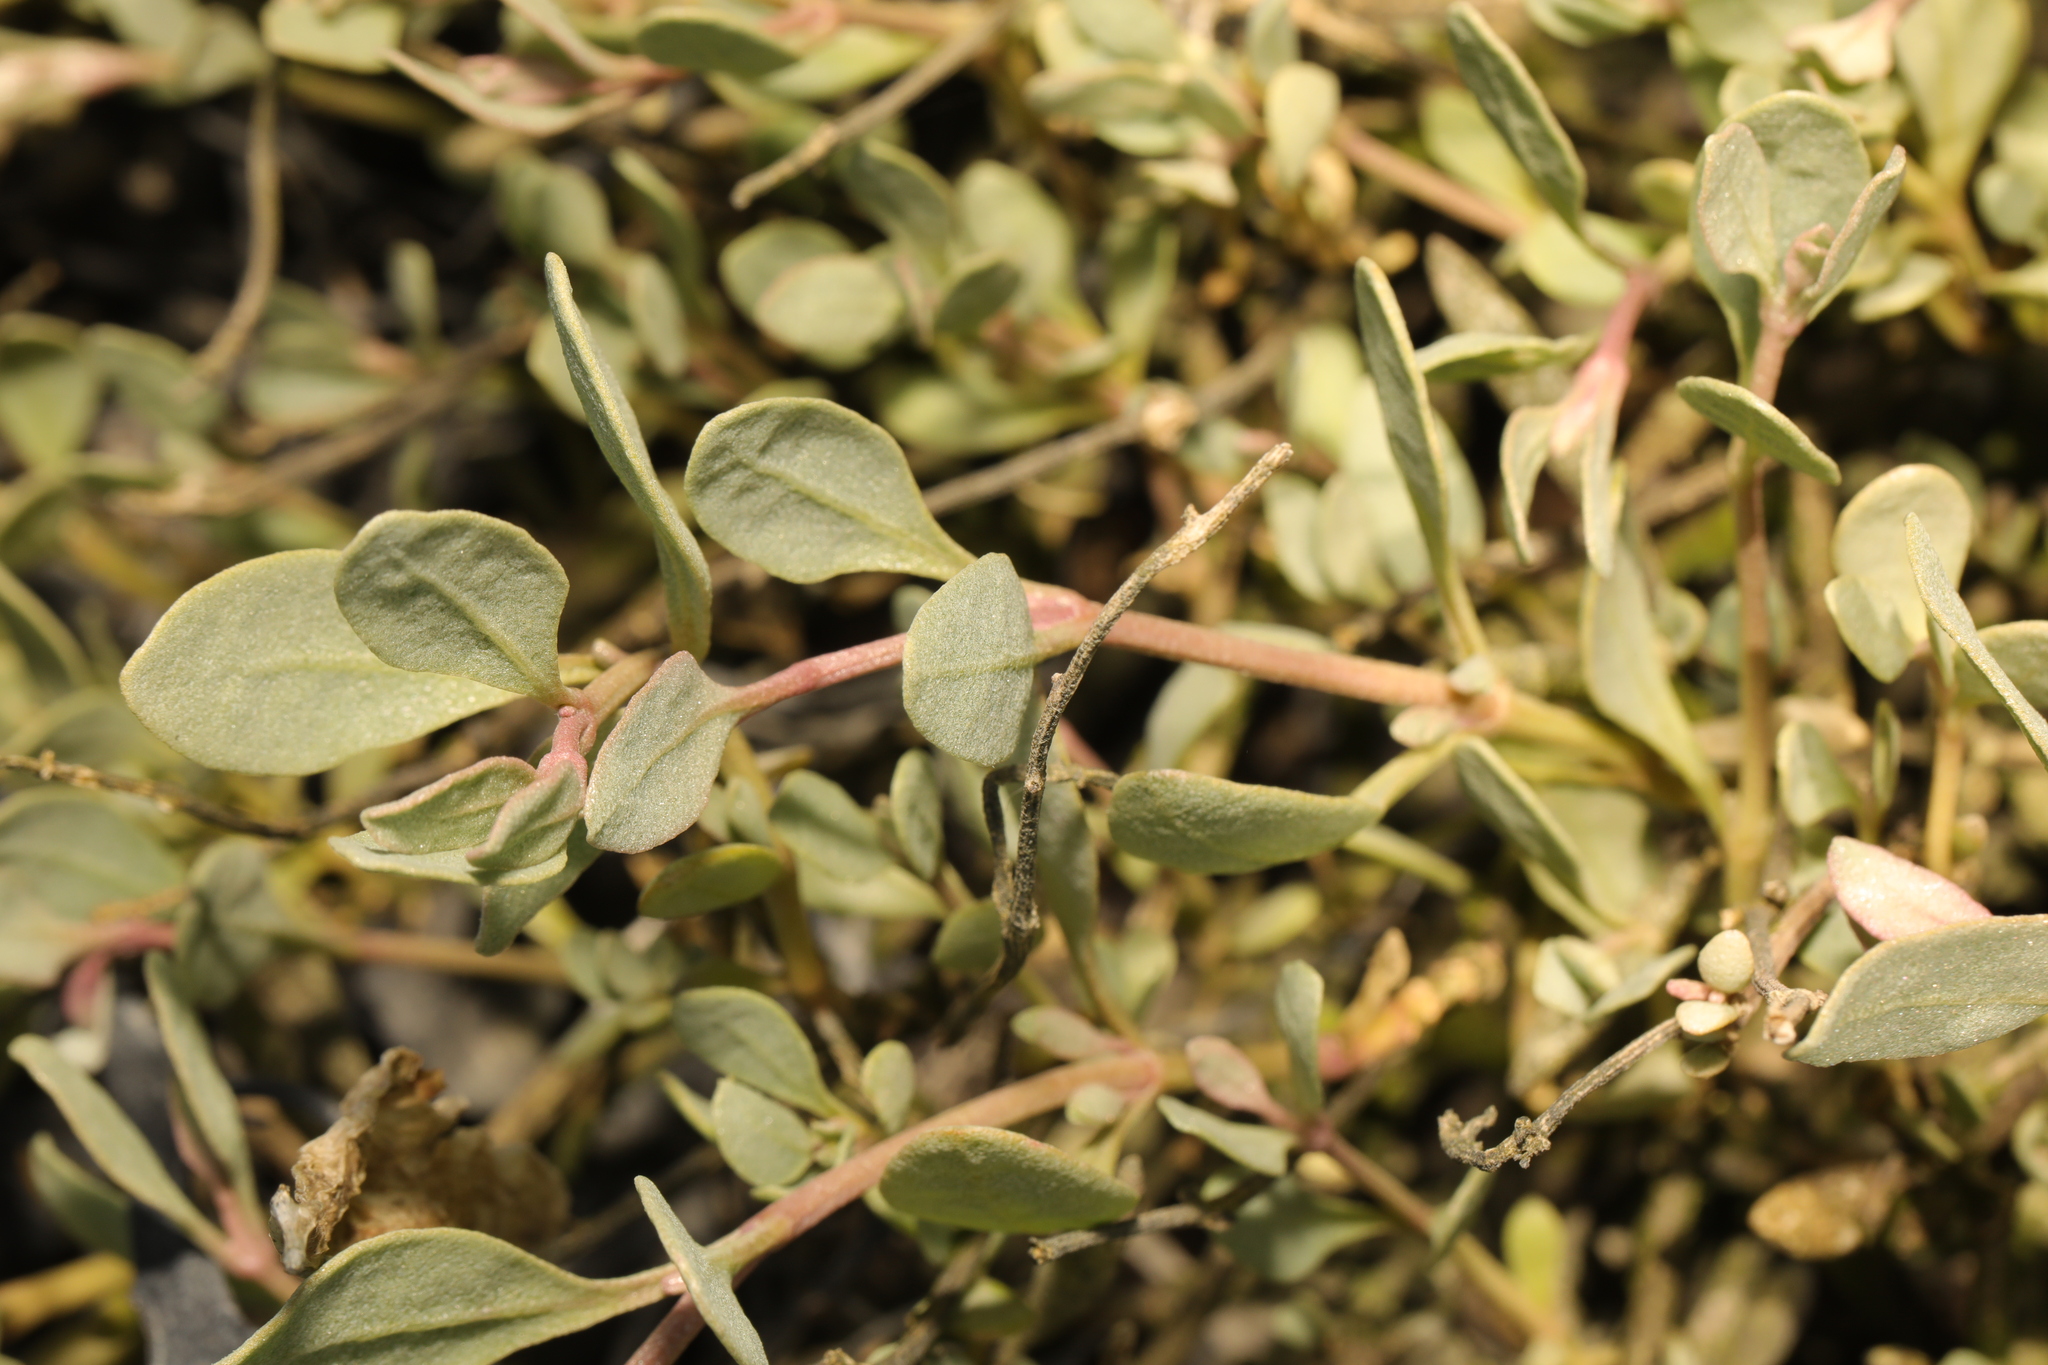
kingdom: Plantae
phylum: Tracheophyta
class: Magnoliopsida
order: Caryophyllales
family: Amaranthaceae
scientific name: Amaranthaceae
